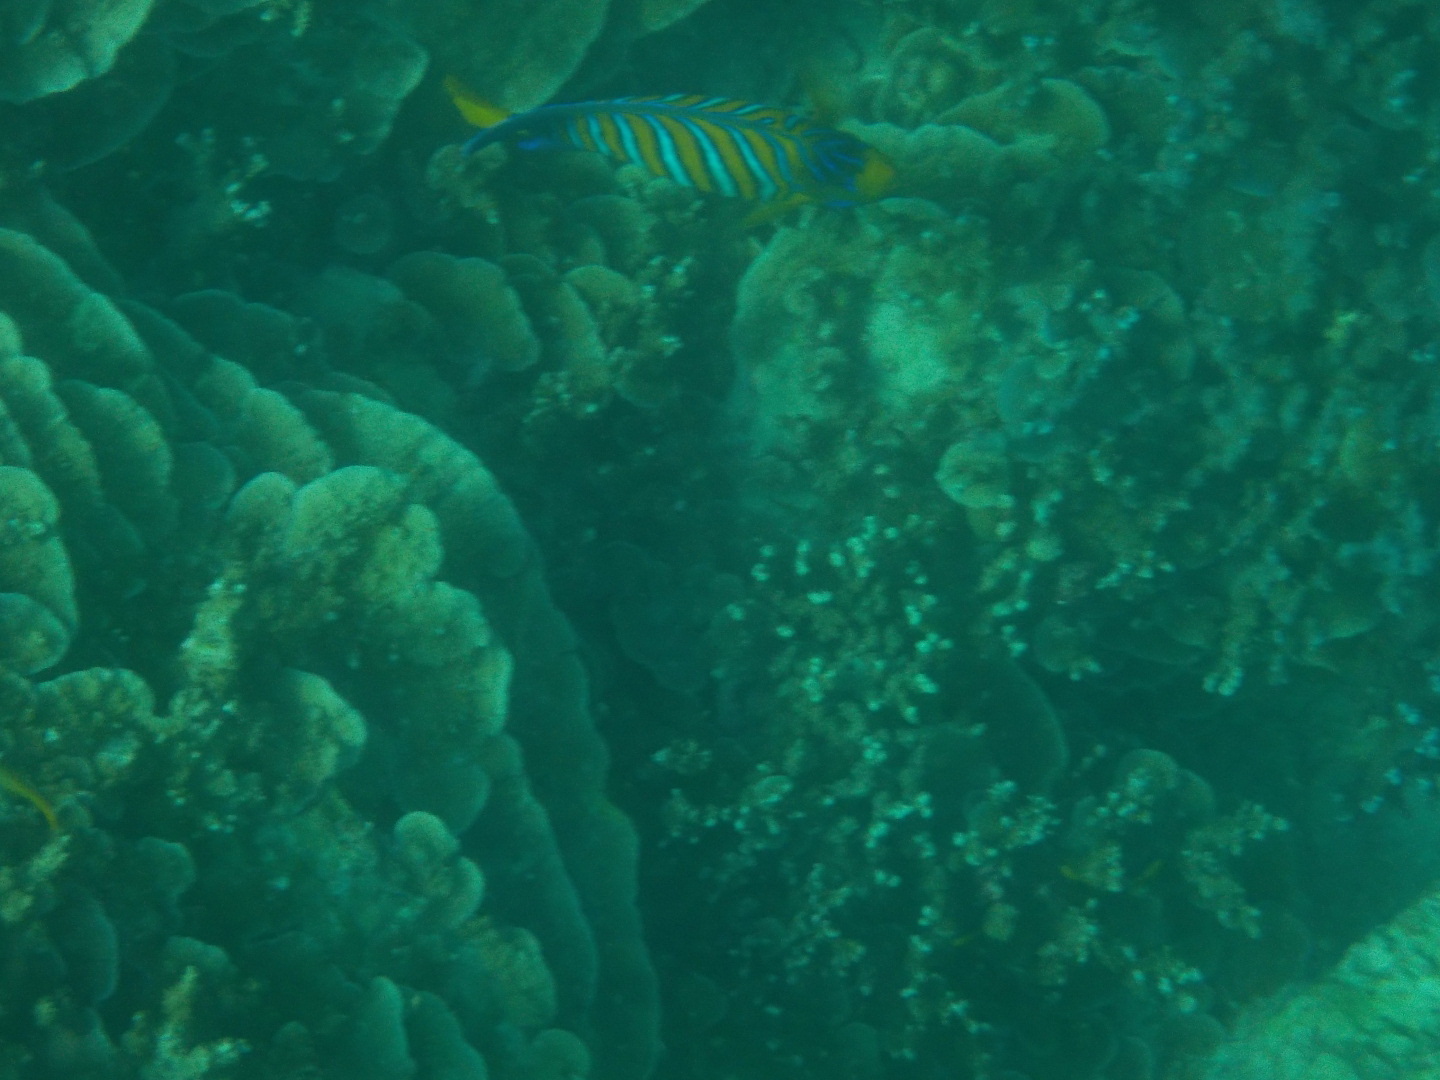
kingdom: Animalia
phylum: Chordata
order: Perciformes
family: Pomacanthidae
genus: Pygoplites
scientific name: Pygoplites diacanthus
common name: Regal angelfish
